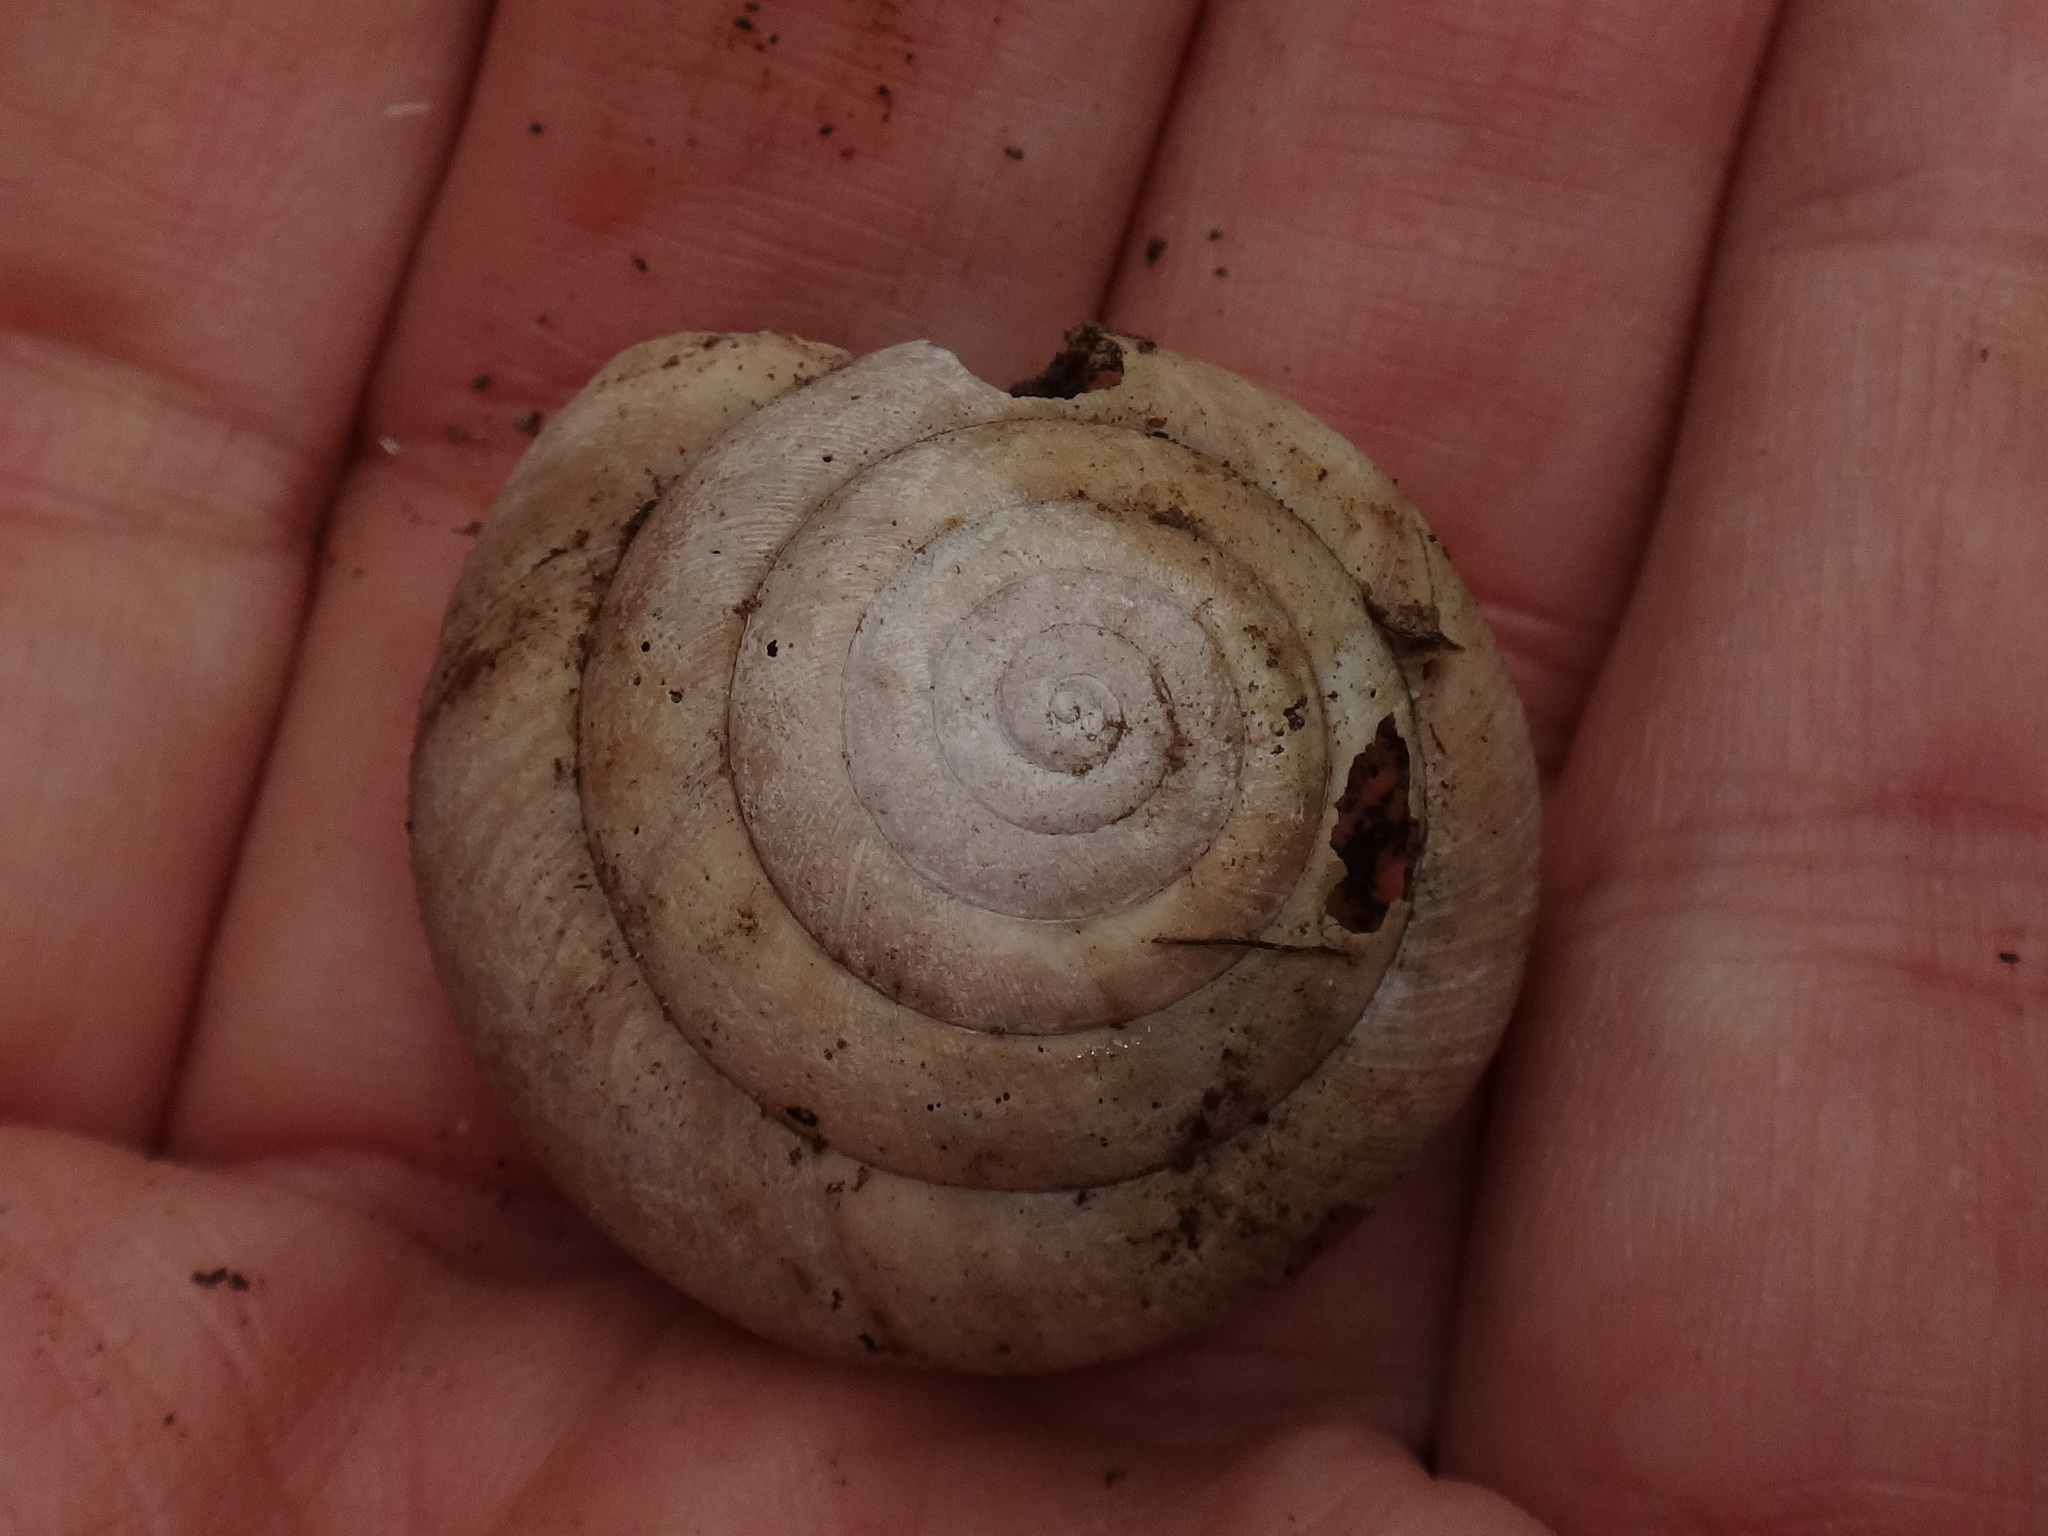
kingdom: Animalia
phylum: Mollusca
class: Gastropoda
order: Stylommatophora
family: Zonitidae
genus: Aegopis
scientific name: Aegopis verticillus
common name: Giant glass snail
